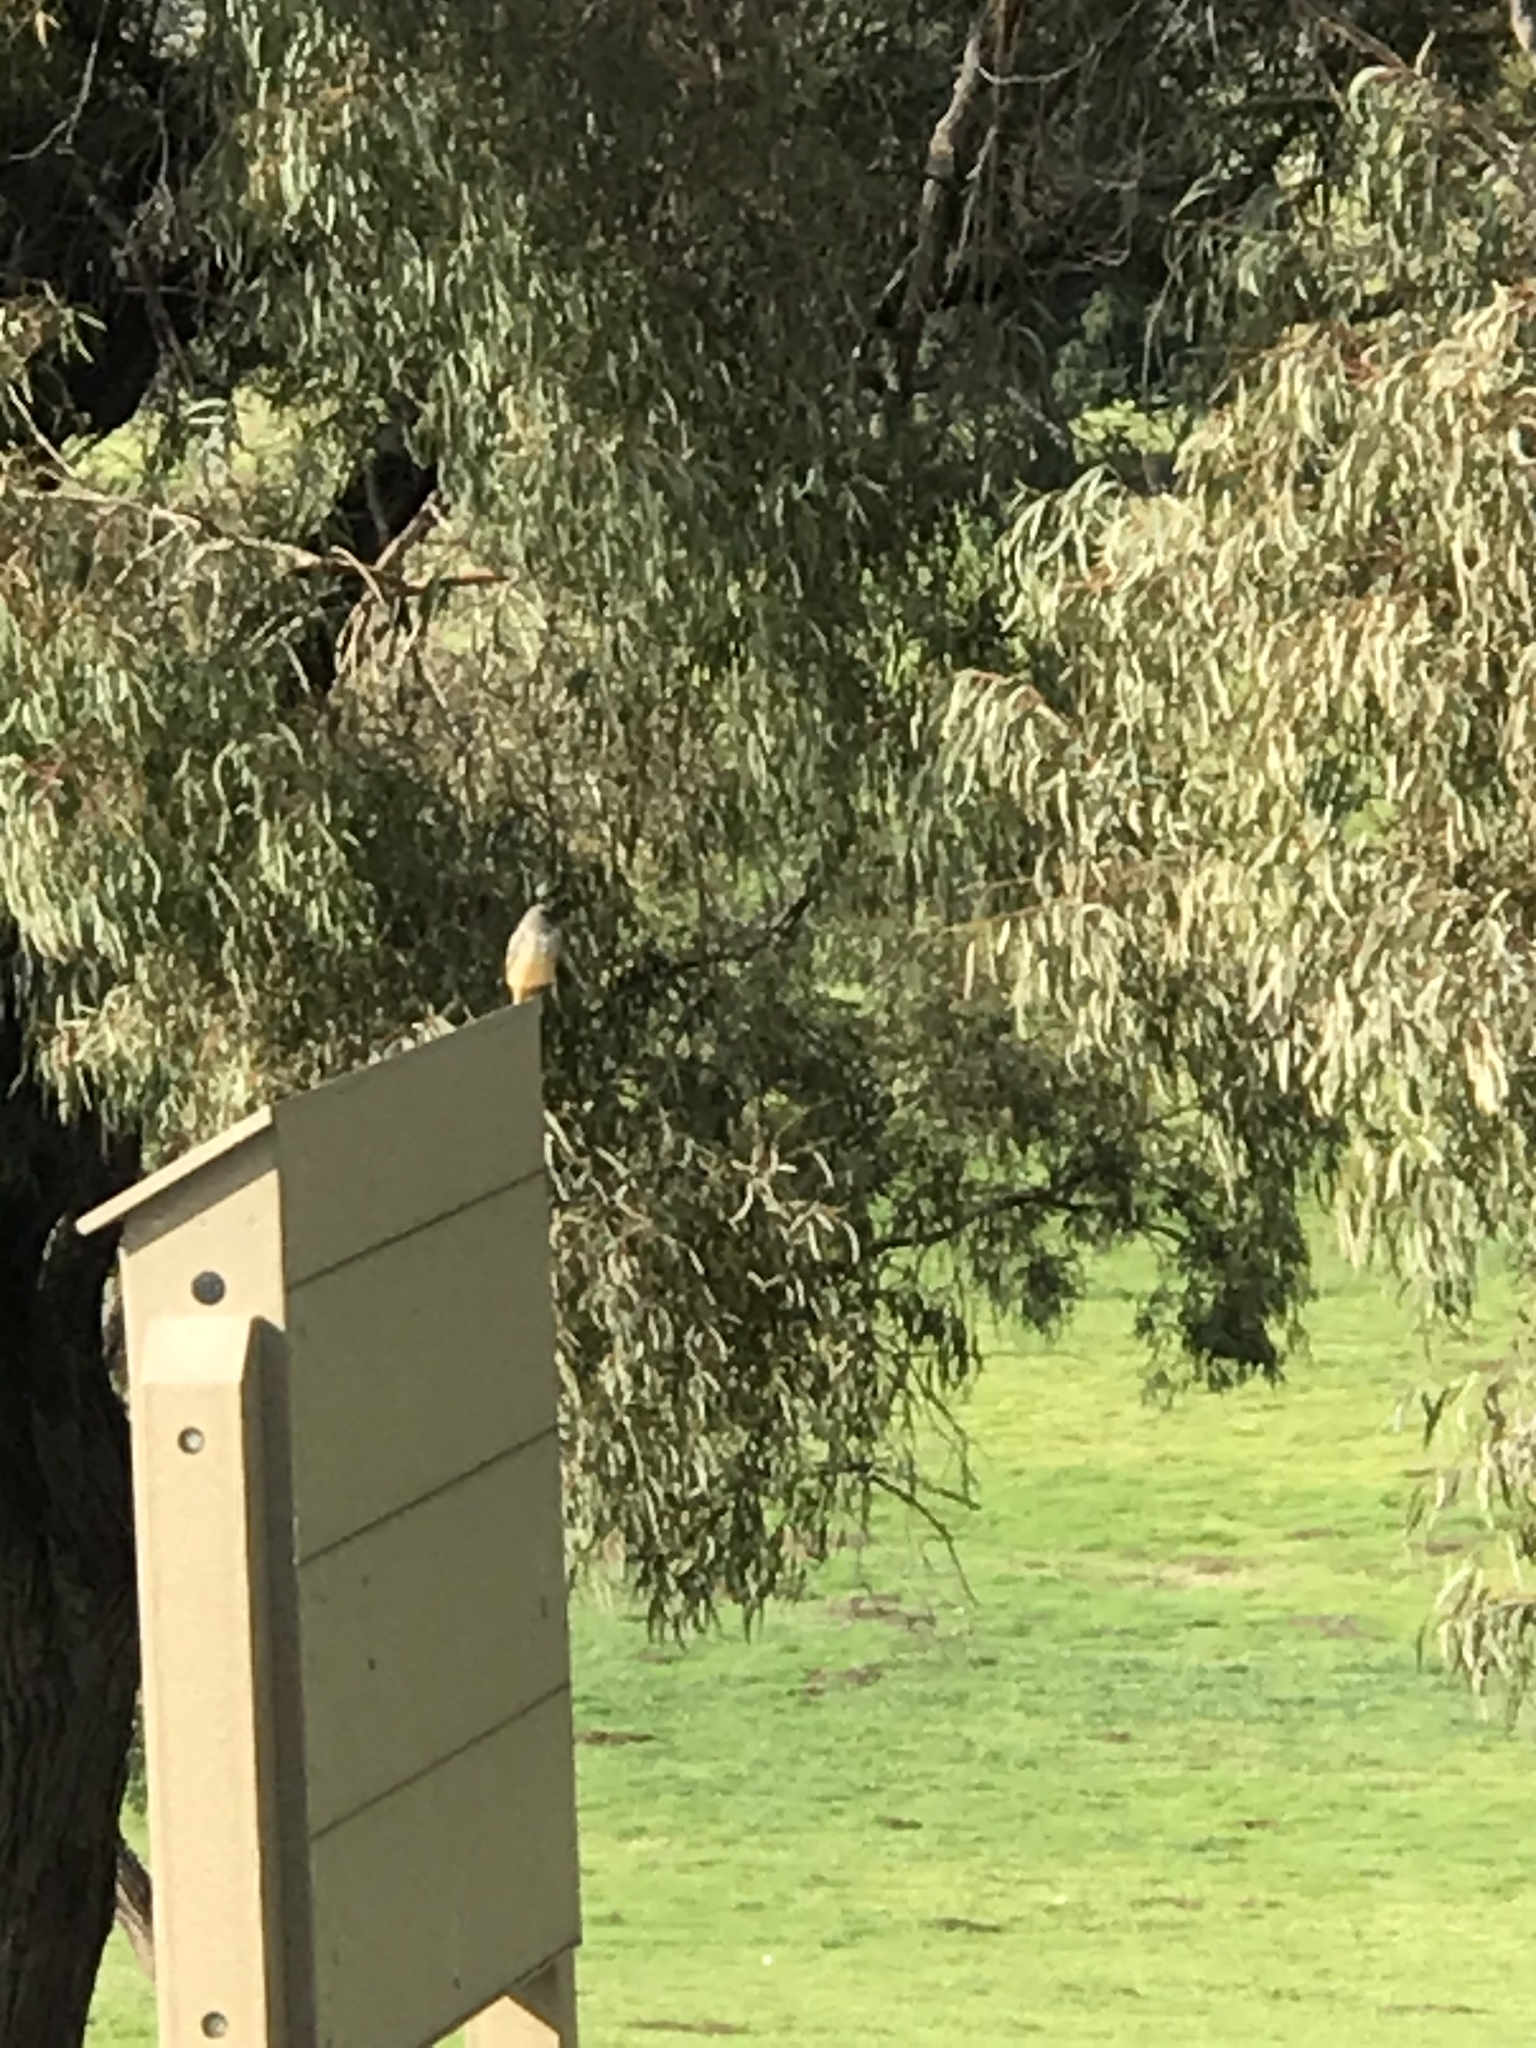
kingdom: Animalia
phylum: Chordata
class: Aves
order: Passeriformes
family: Tyrannidae
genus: Sayornis
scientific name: Sayornis saya
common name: Say's phoebe
